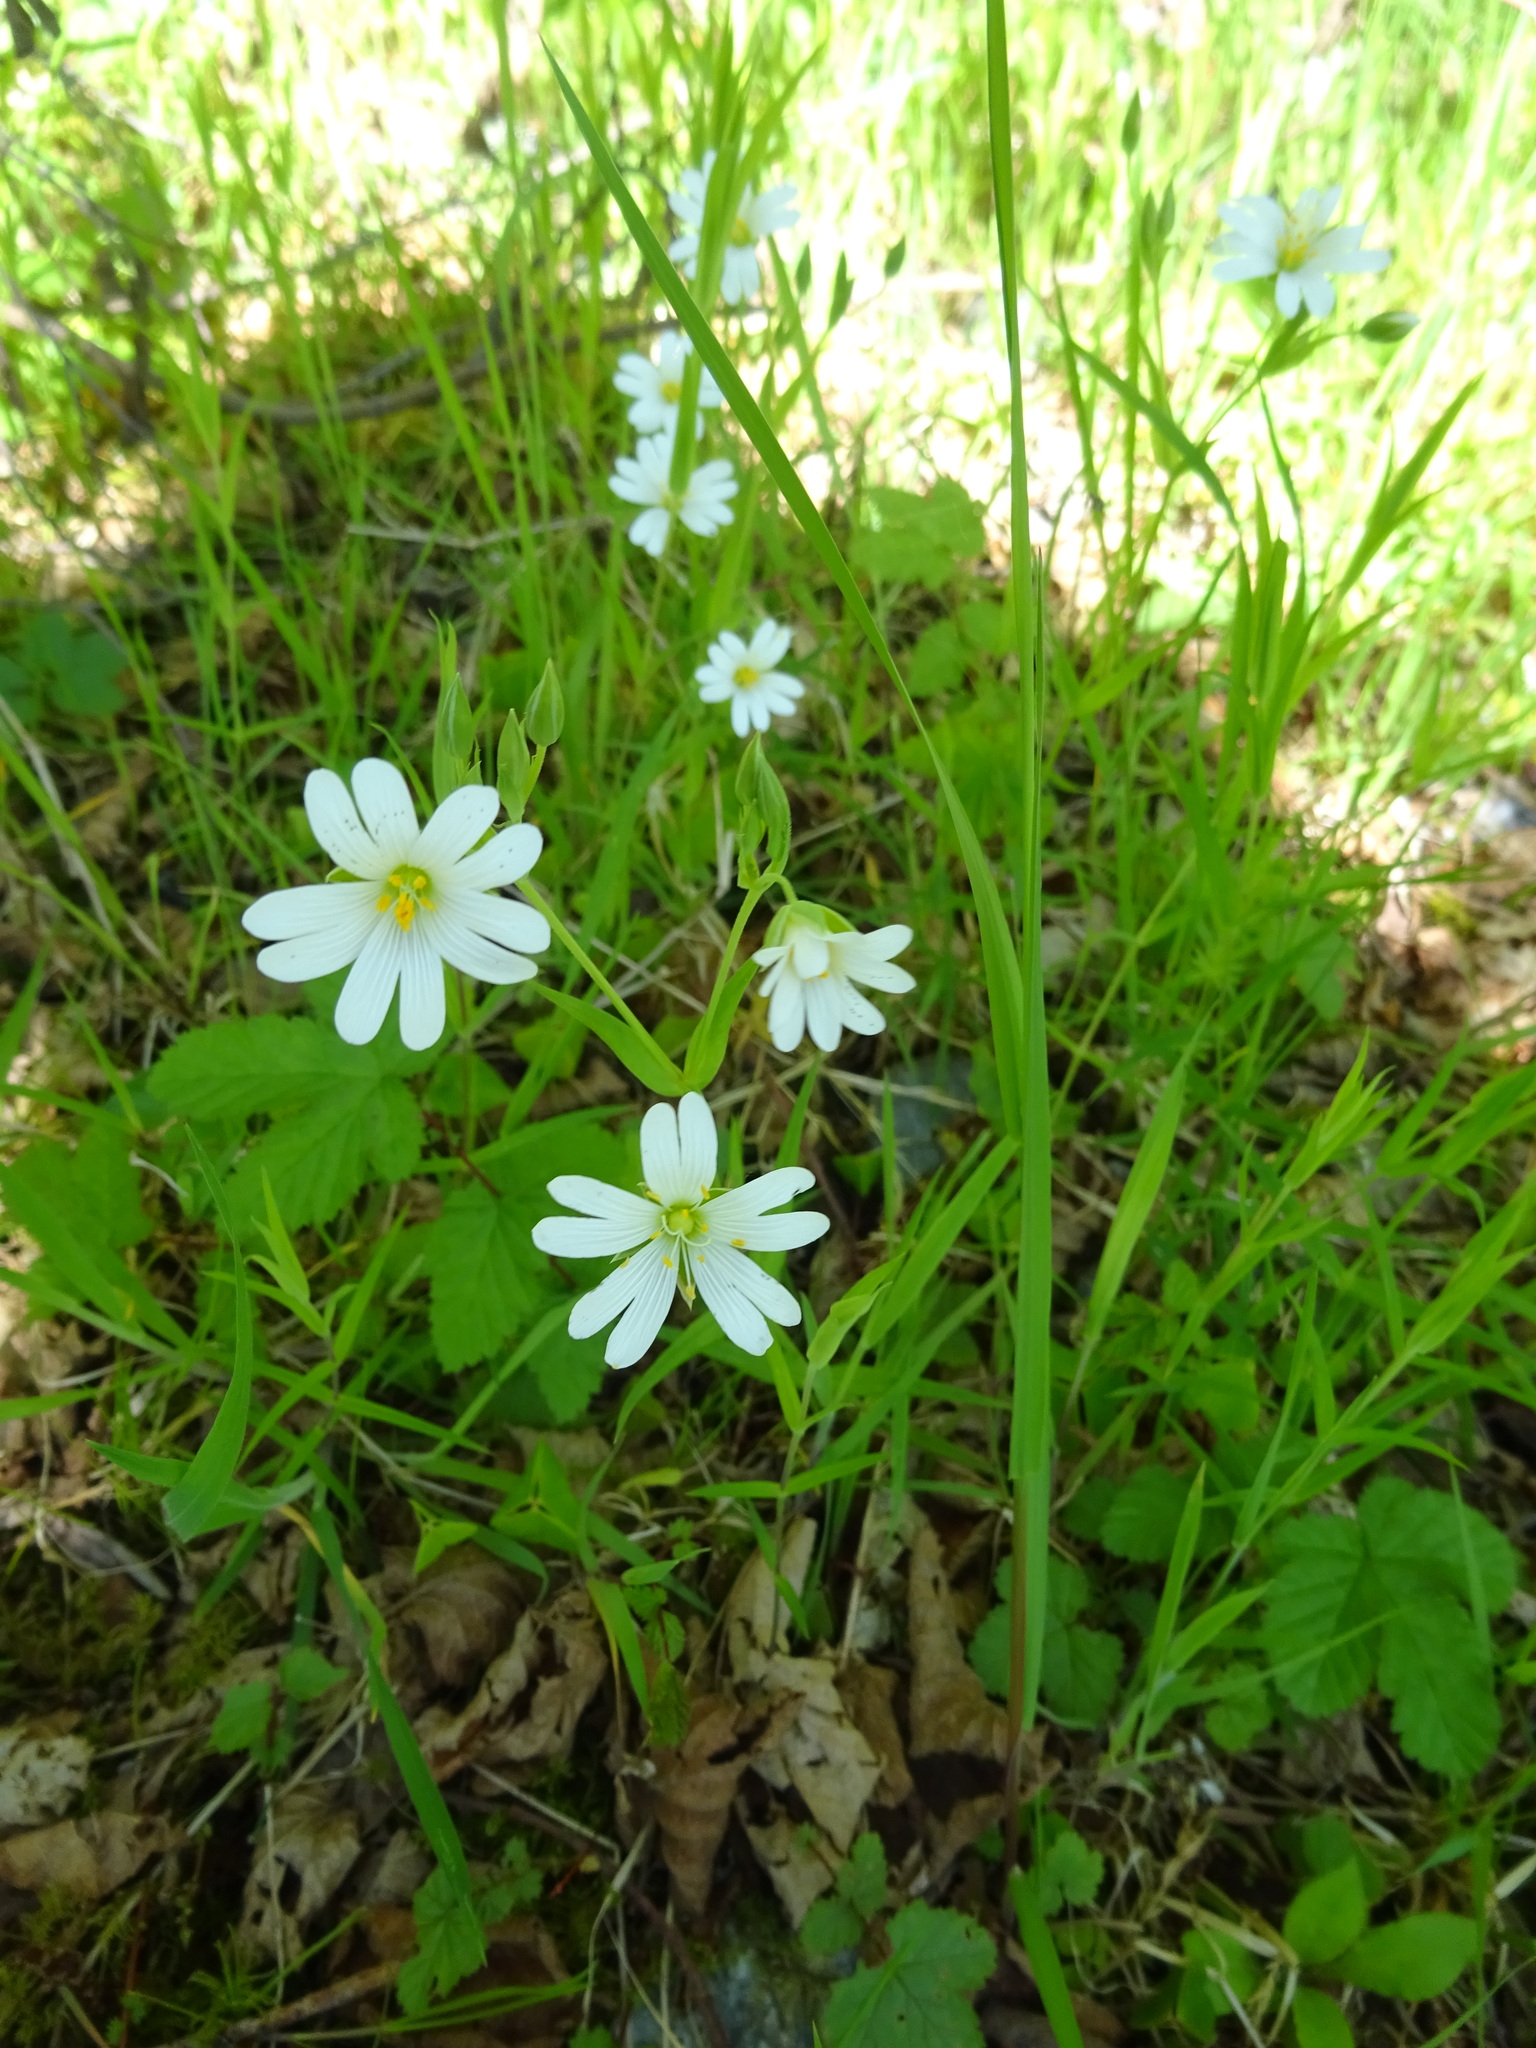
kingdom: Plantae
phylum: Tracheophyta
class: Magnoliopsida
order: Caryophyllales
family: Caryophyllaceae
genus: Rabelera
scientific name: Rabelera holostea
